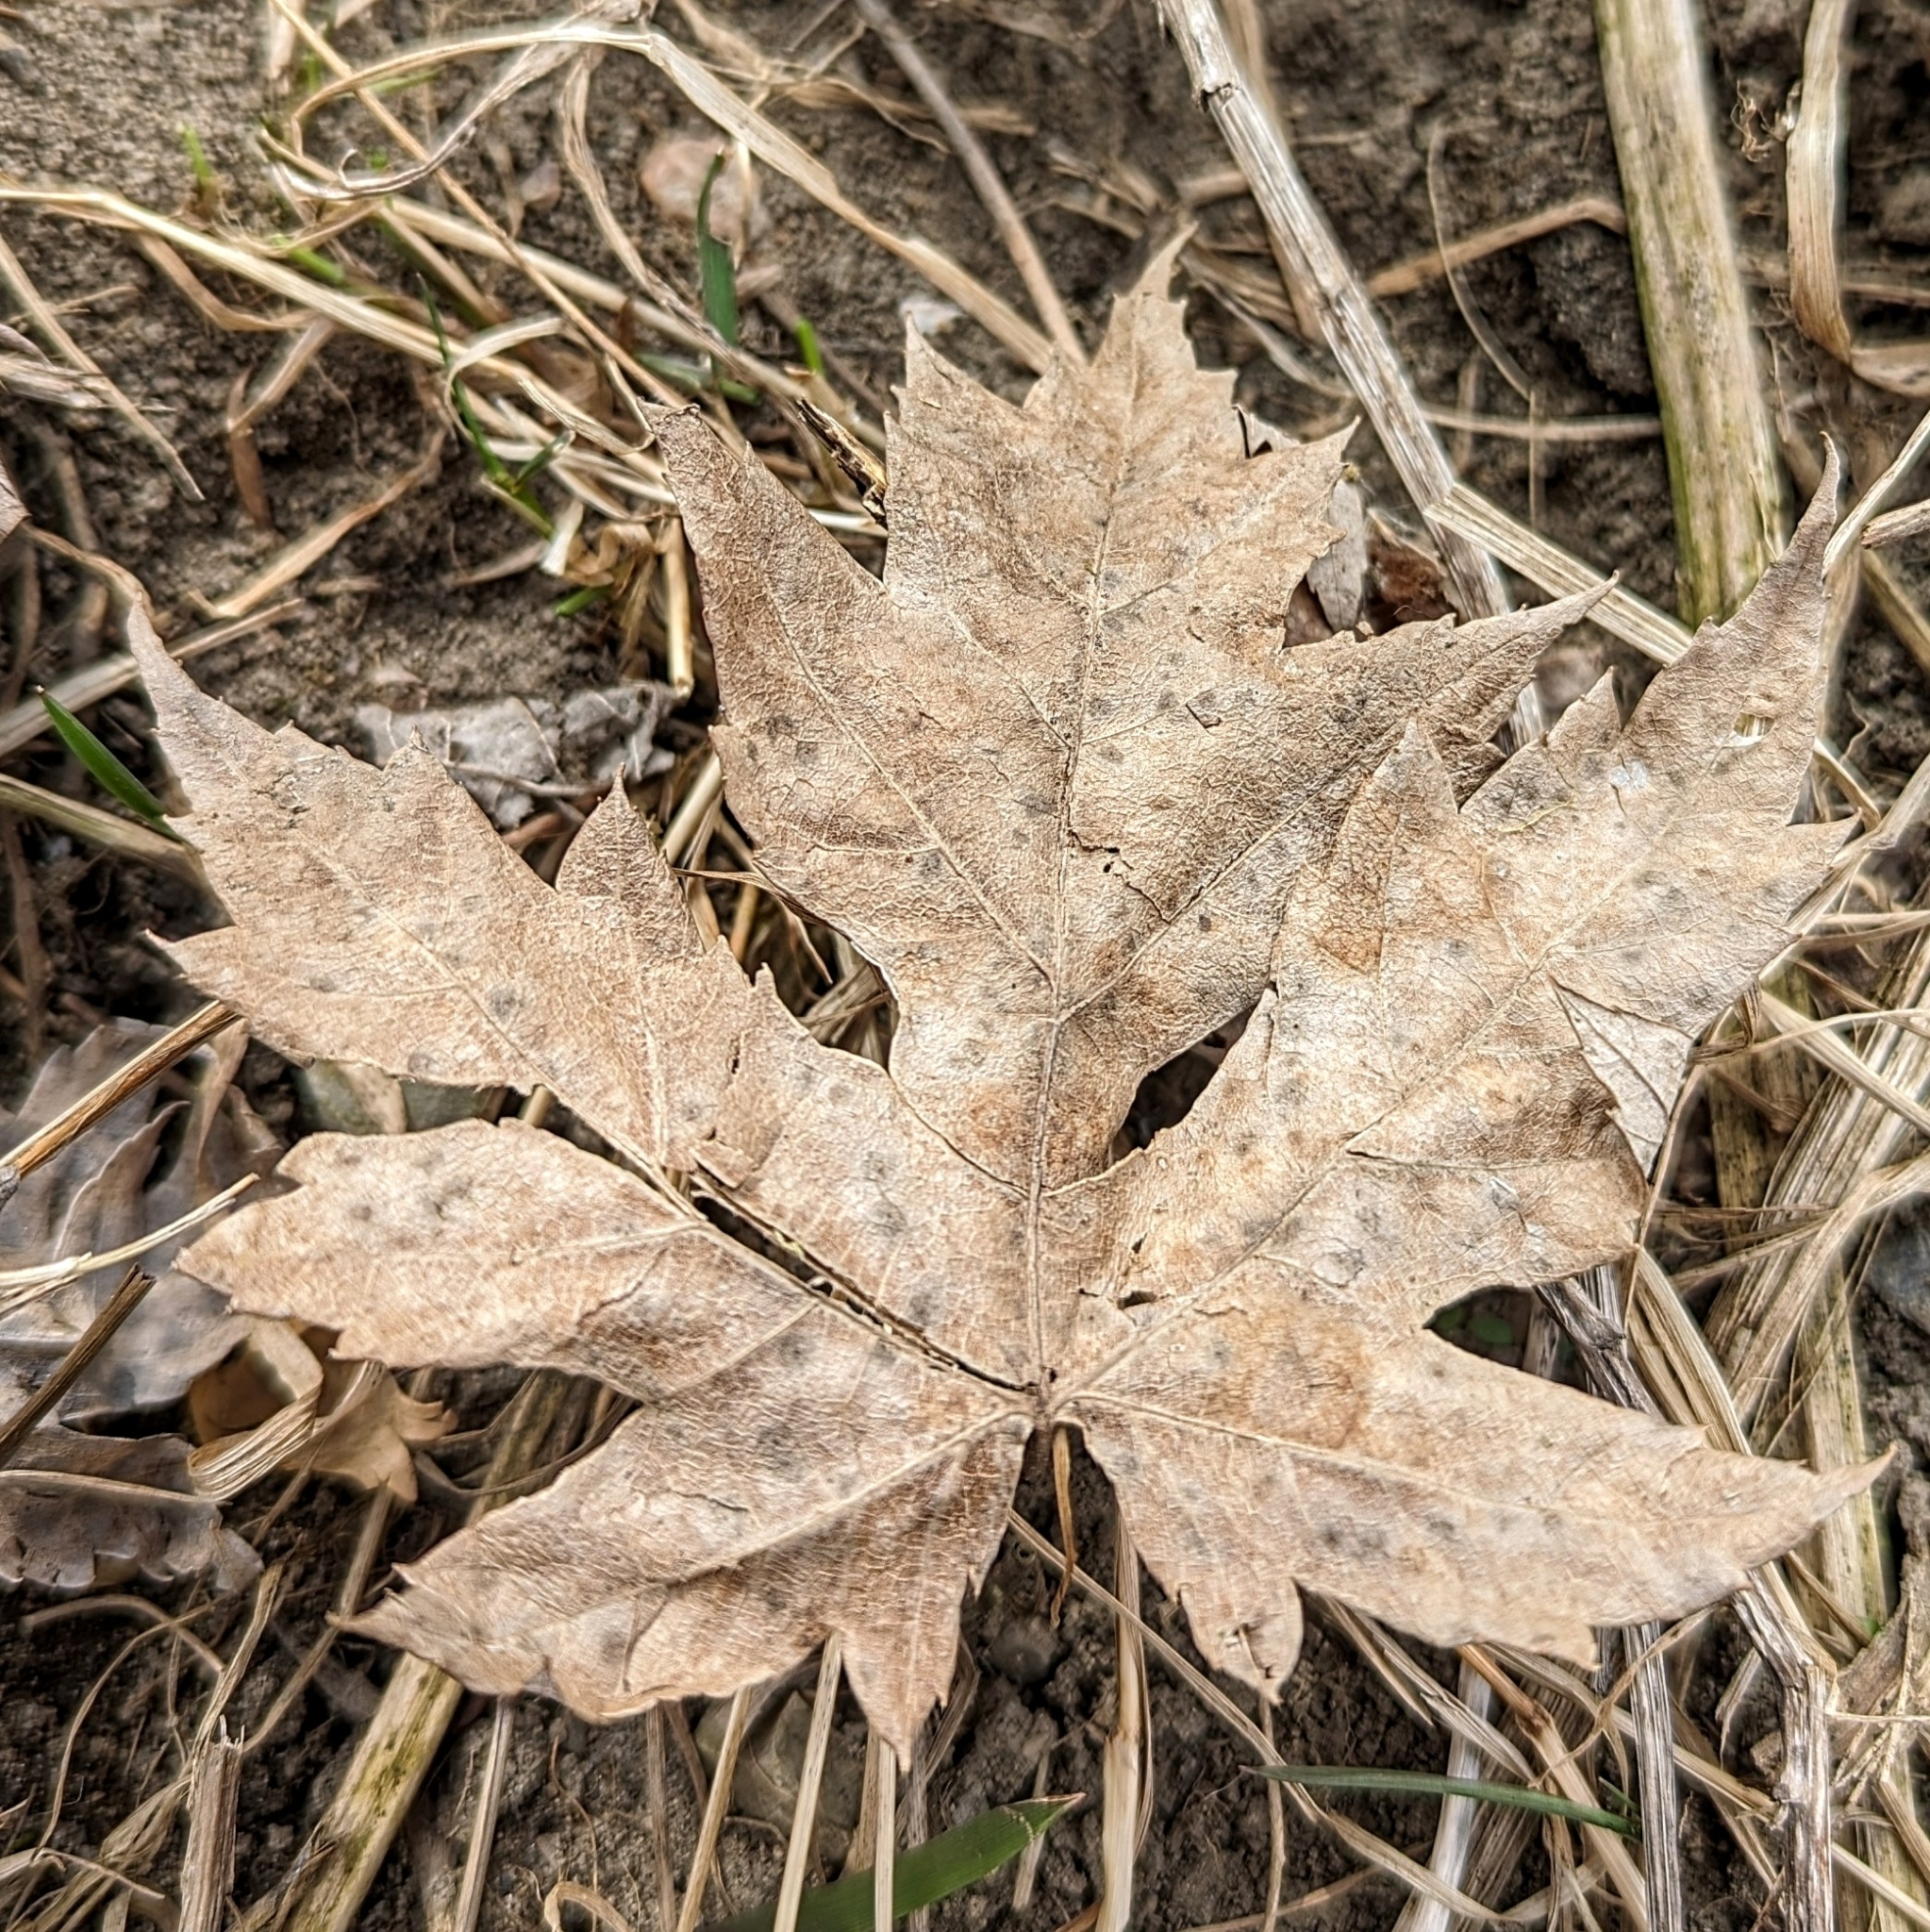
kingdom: Plantae
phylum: Tracheophyta
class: Magnoliopsida
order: Sapindales
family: Sapindaceae
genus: Acer
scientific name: Acer saccharinum
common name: Silver maple
